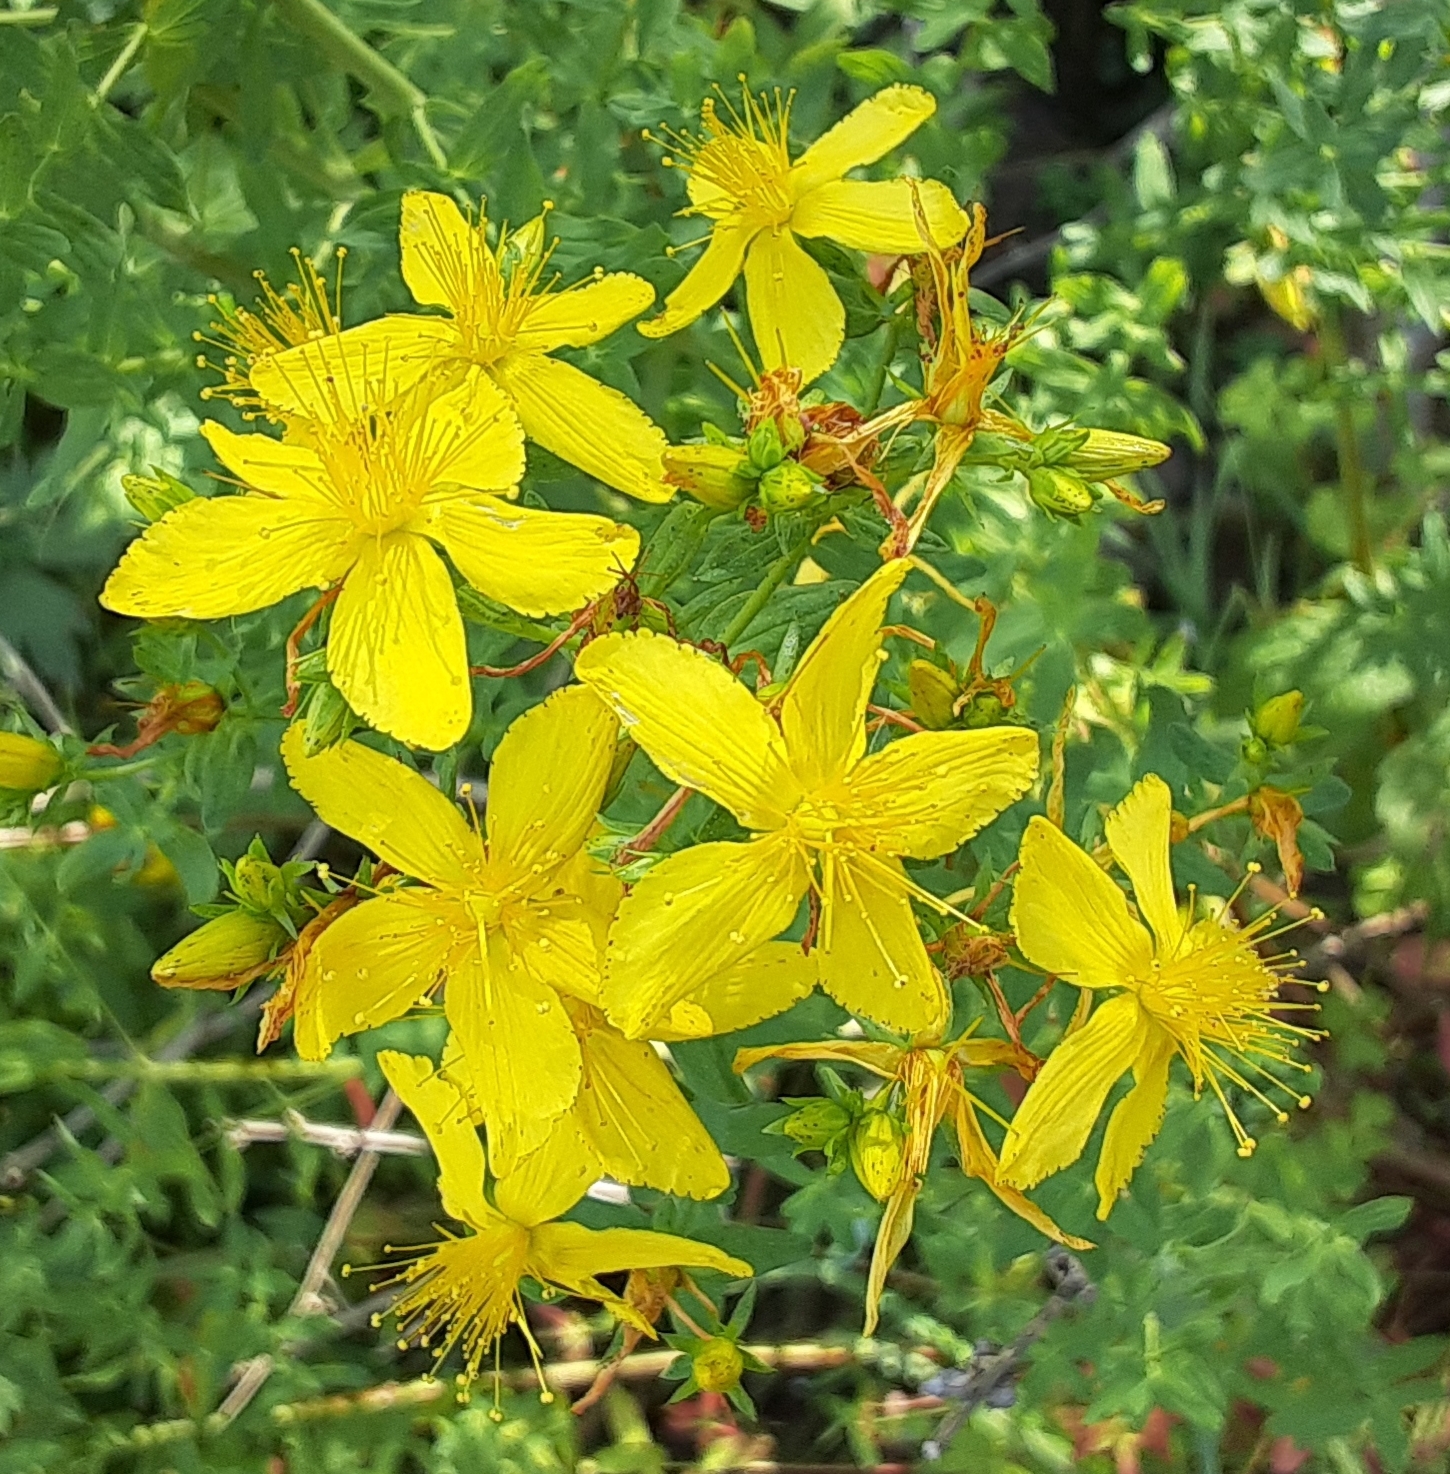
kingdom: Plantae
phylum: Tracheophyta
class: Magnoliopsida
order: Malpighiales
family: Hypericaceae
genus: Hypericum
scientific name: Hypericum perforatum
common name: Common st. johnswort
